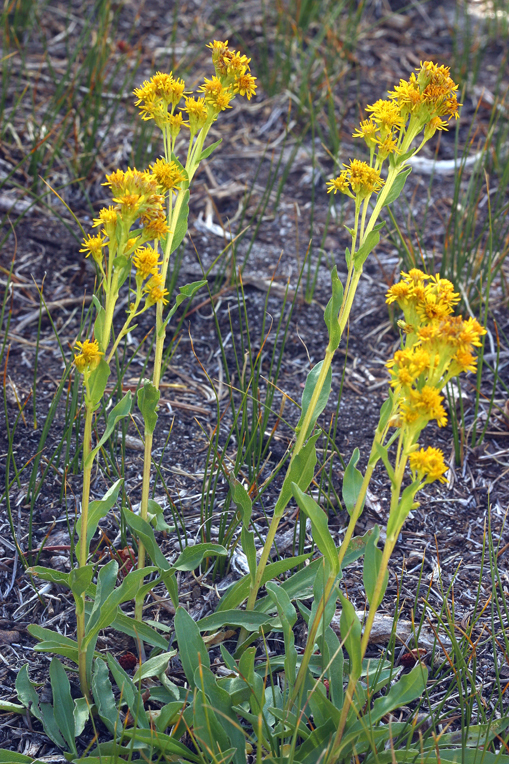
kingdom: Plantae
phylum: Tracheophyta
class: Magnoliopsida
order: Asterales
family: Asteraceae
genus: Solidago
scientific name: Solidago multiradiata
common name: Northern goldenrod
